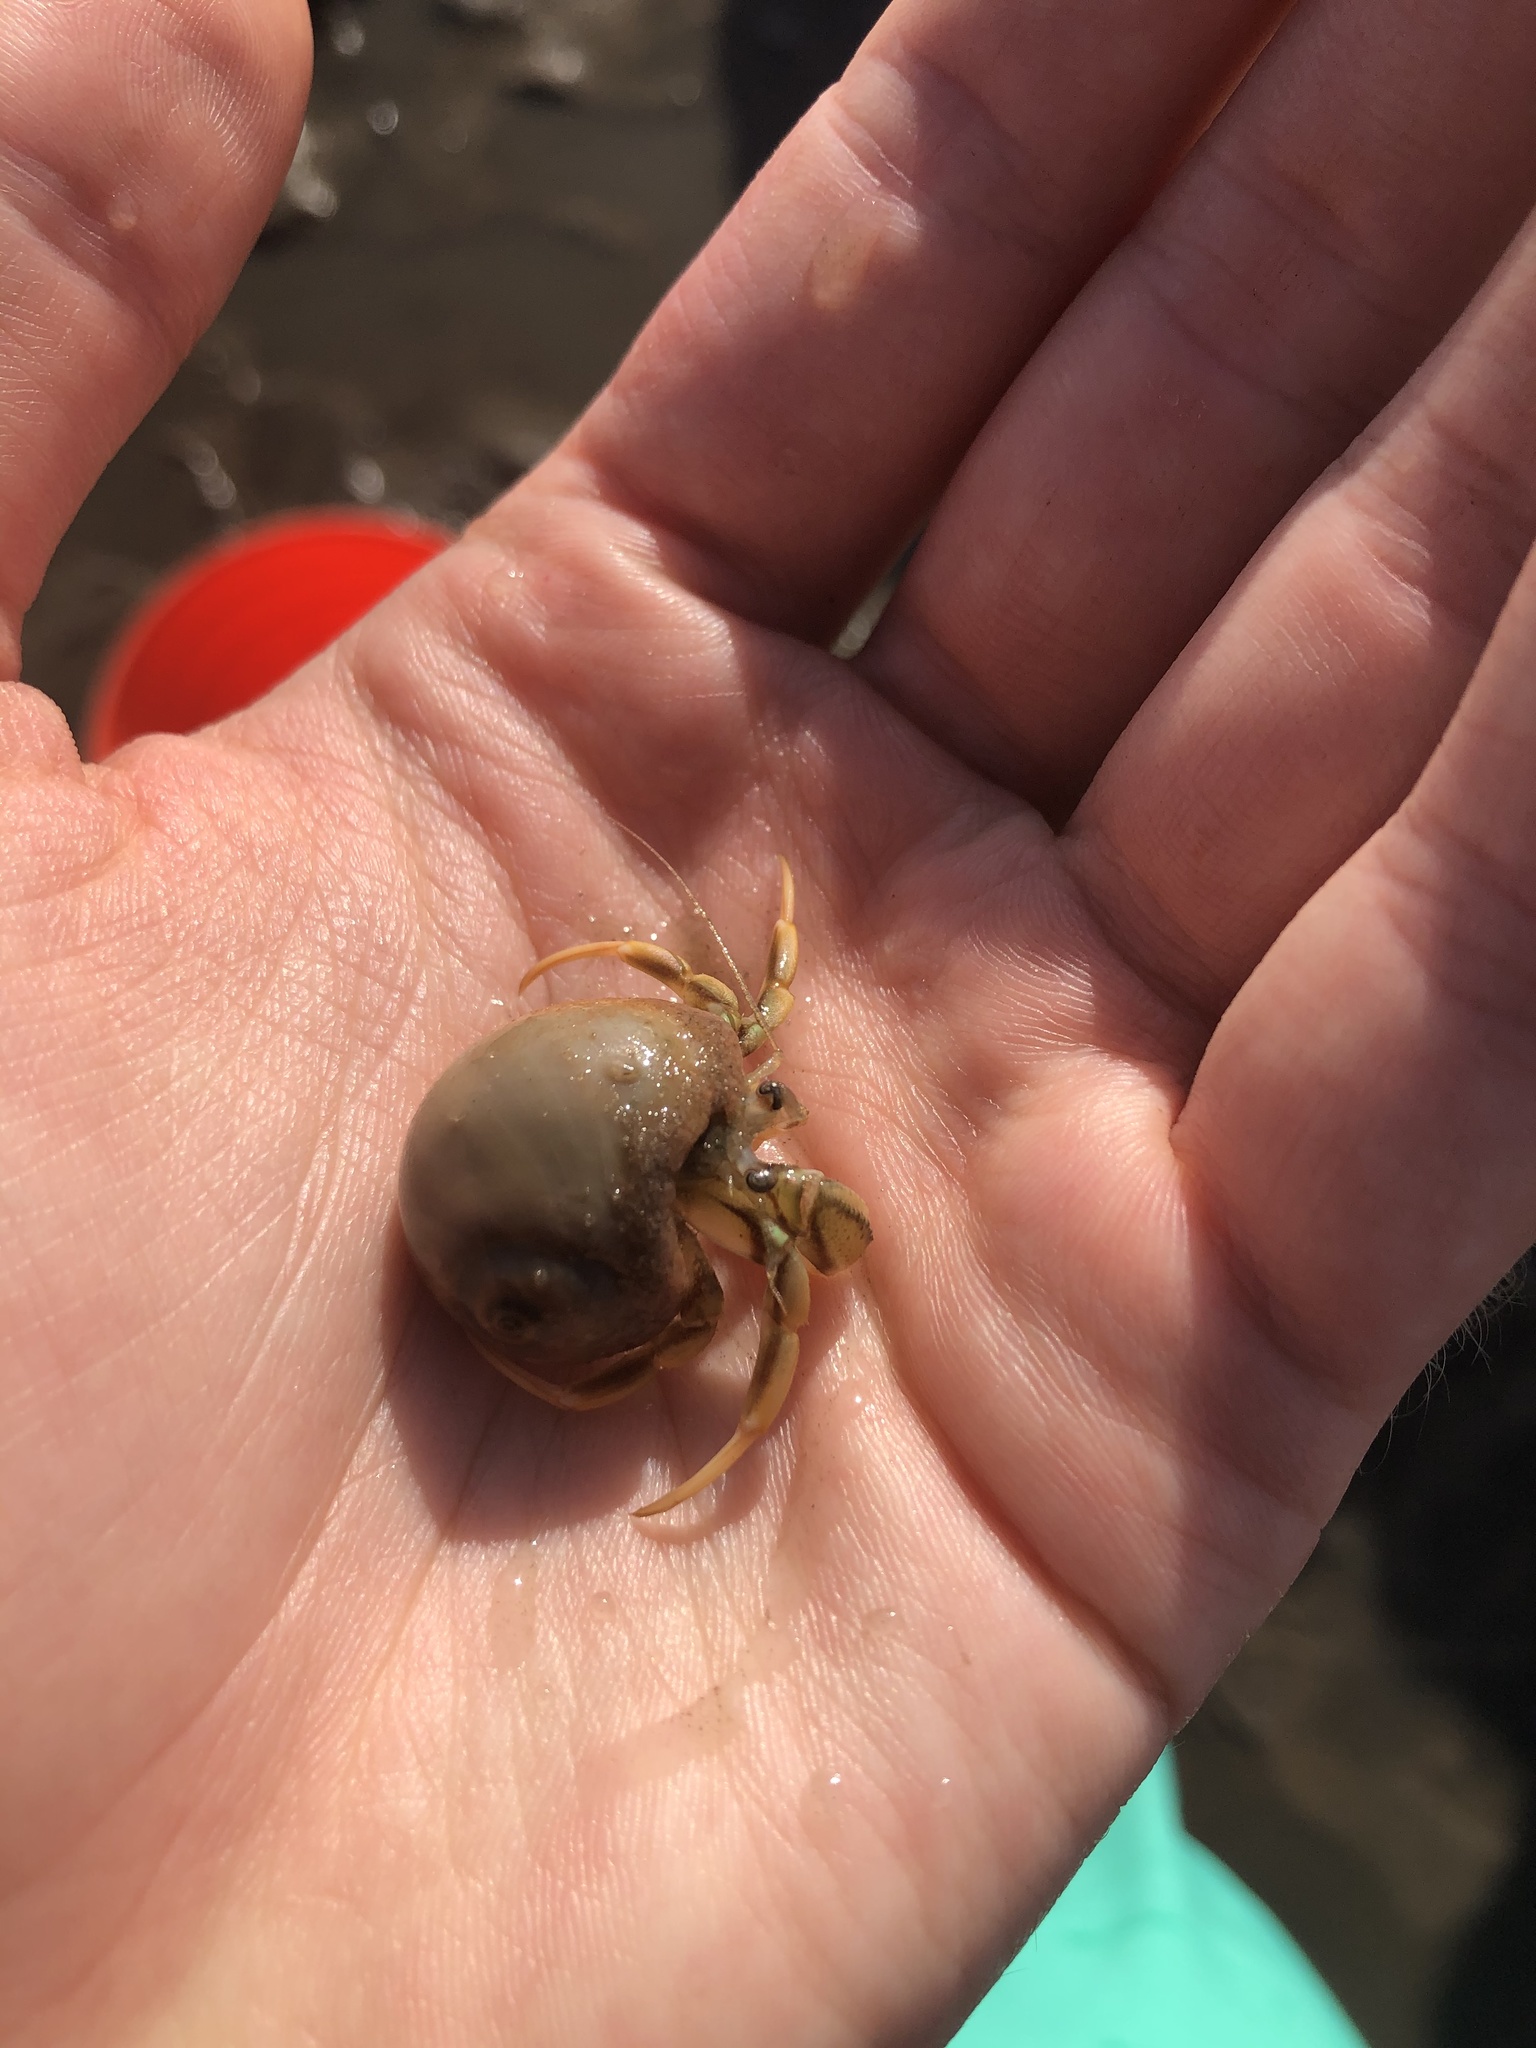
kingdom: Animalia
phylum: Arthropoda
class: Malacostraca
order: Decapoda
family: Paguridae
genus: Pagurus
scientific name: Pagurus longicarpus
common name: Long-armed hermit crab
